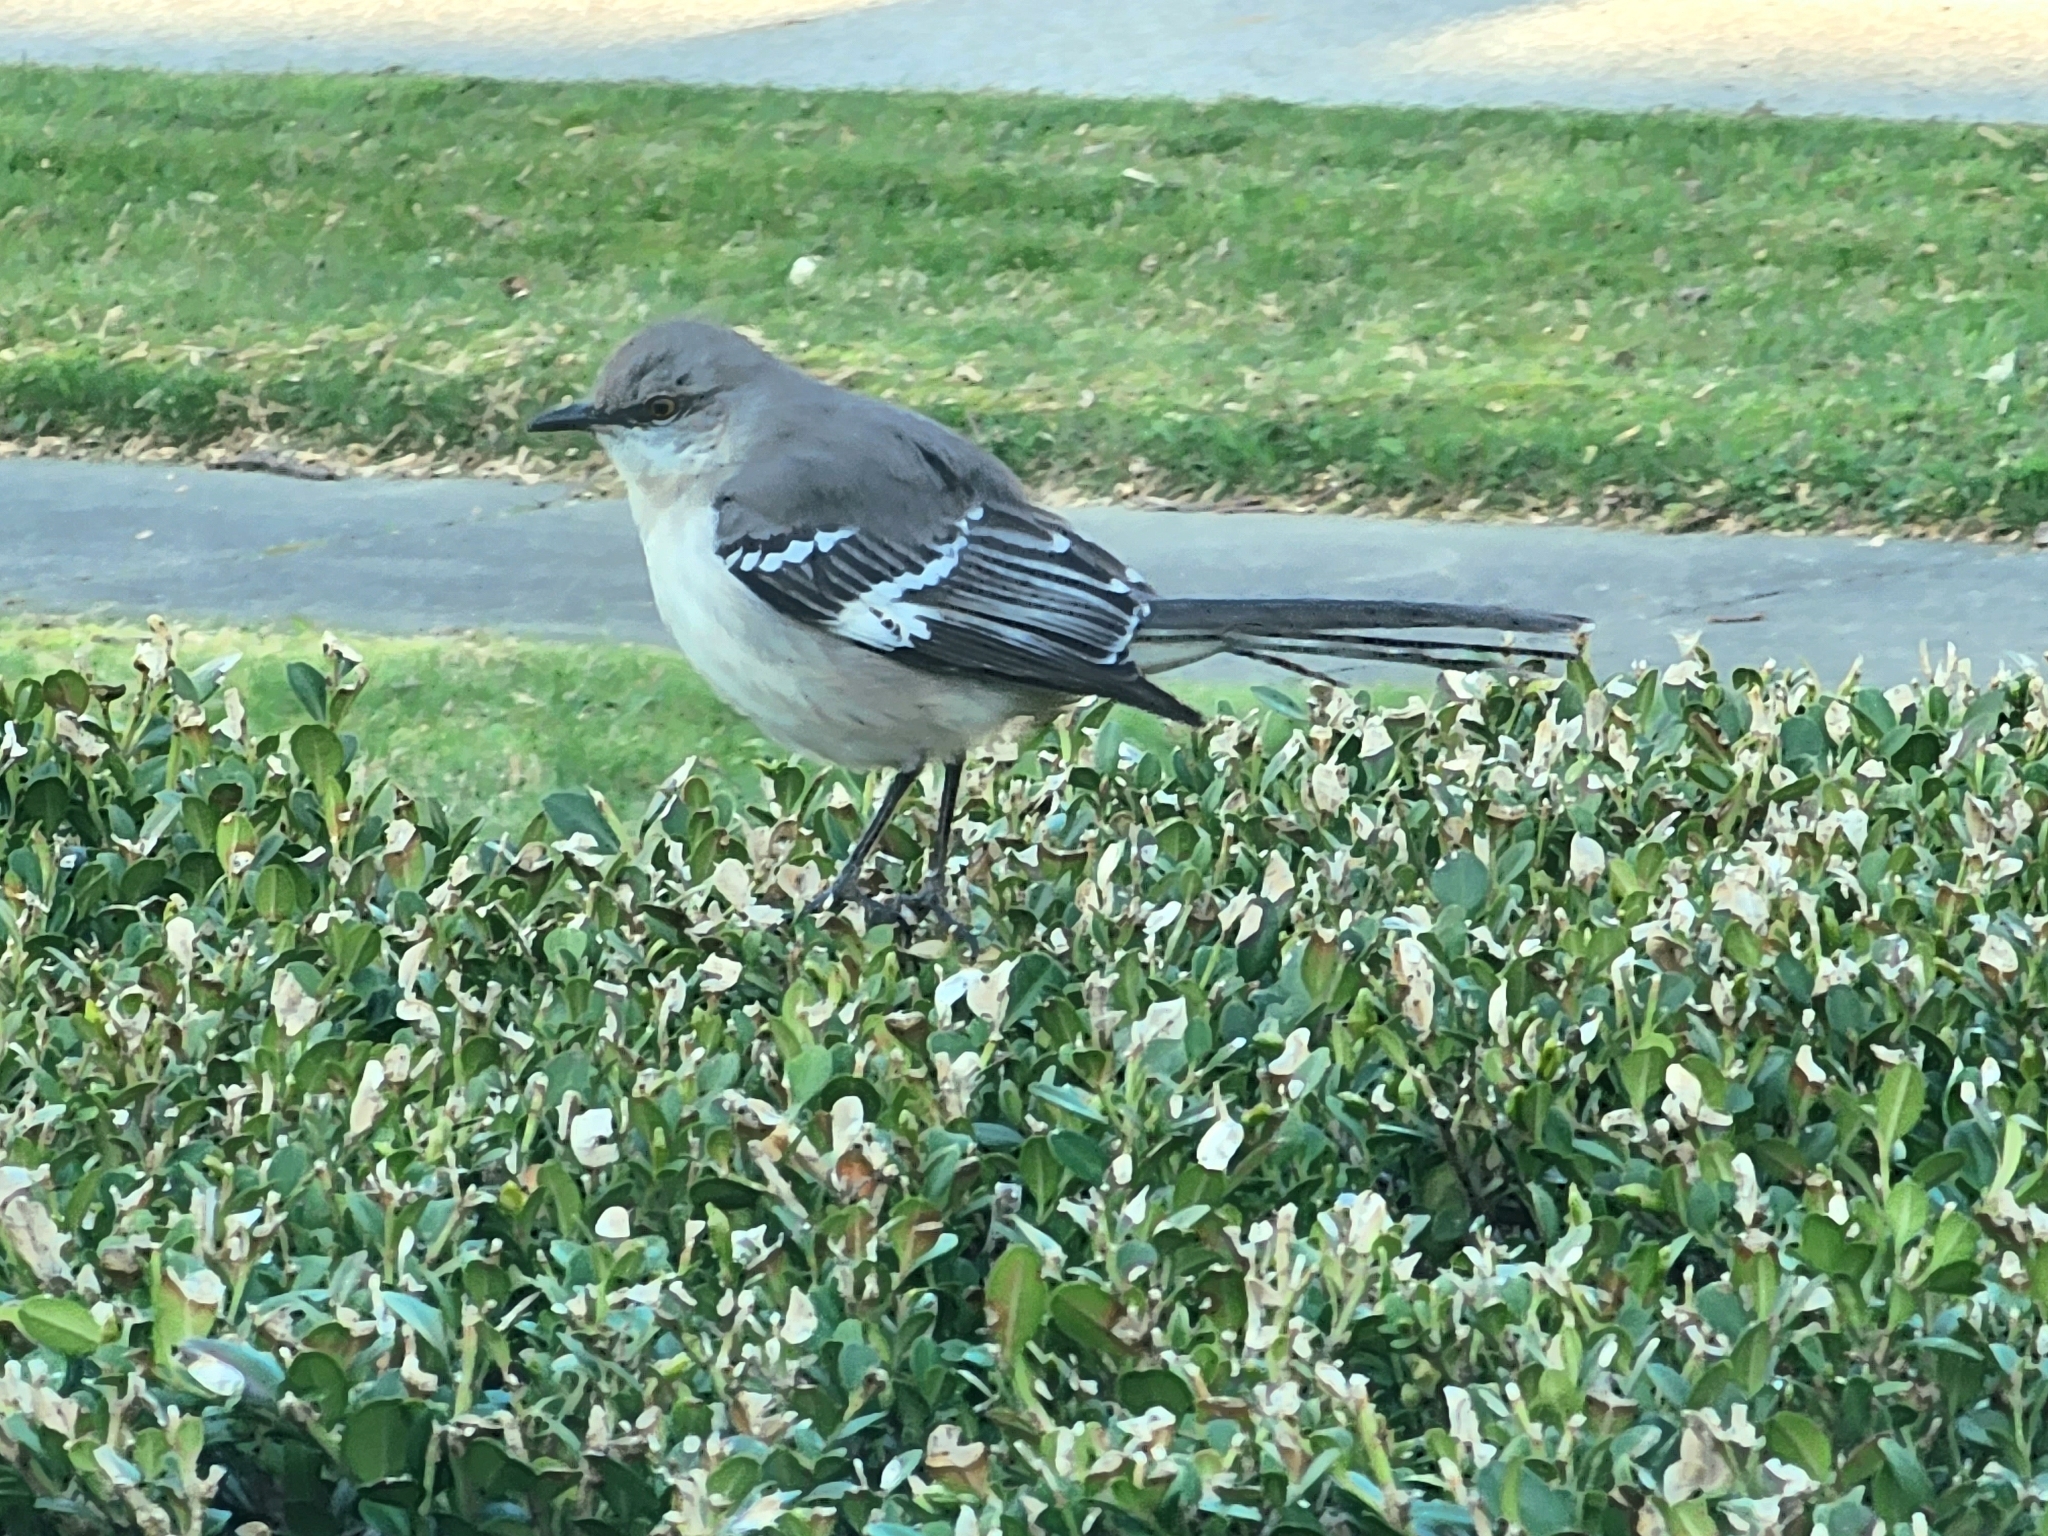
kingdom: Animalia
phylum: Chordata
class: Aves
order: Passeriformes
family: Mimidae
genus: Mimus
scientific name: Mimus polyglottos
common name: Northern mockingbird
